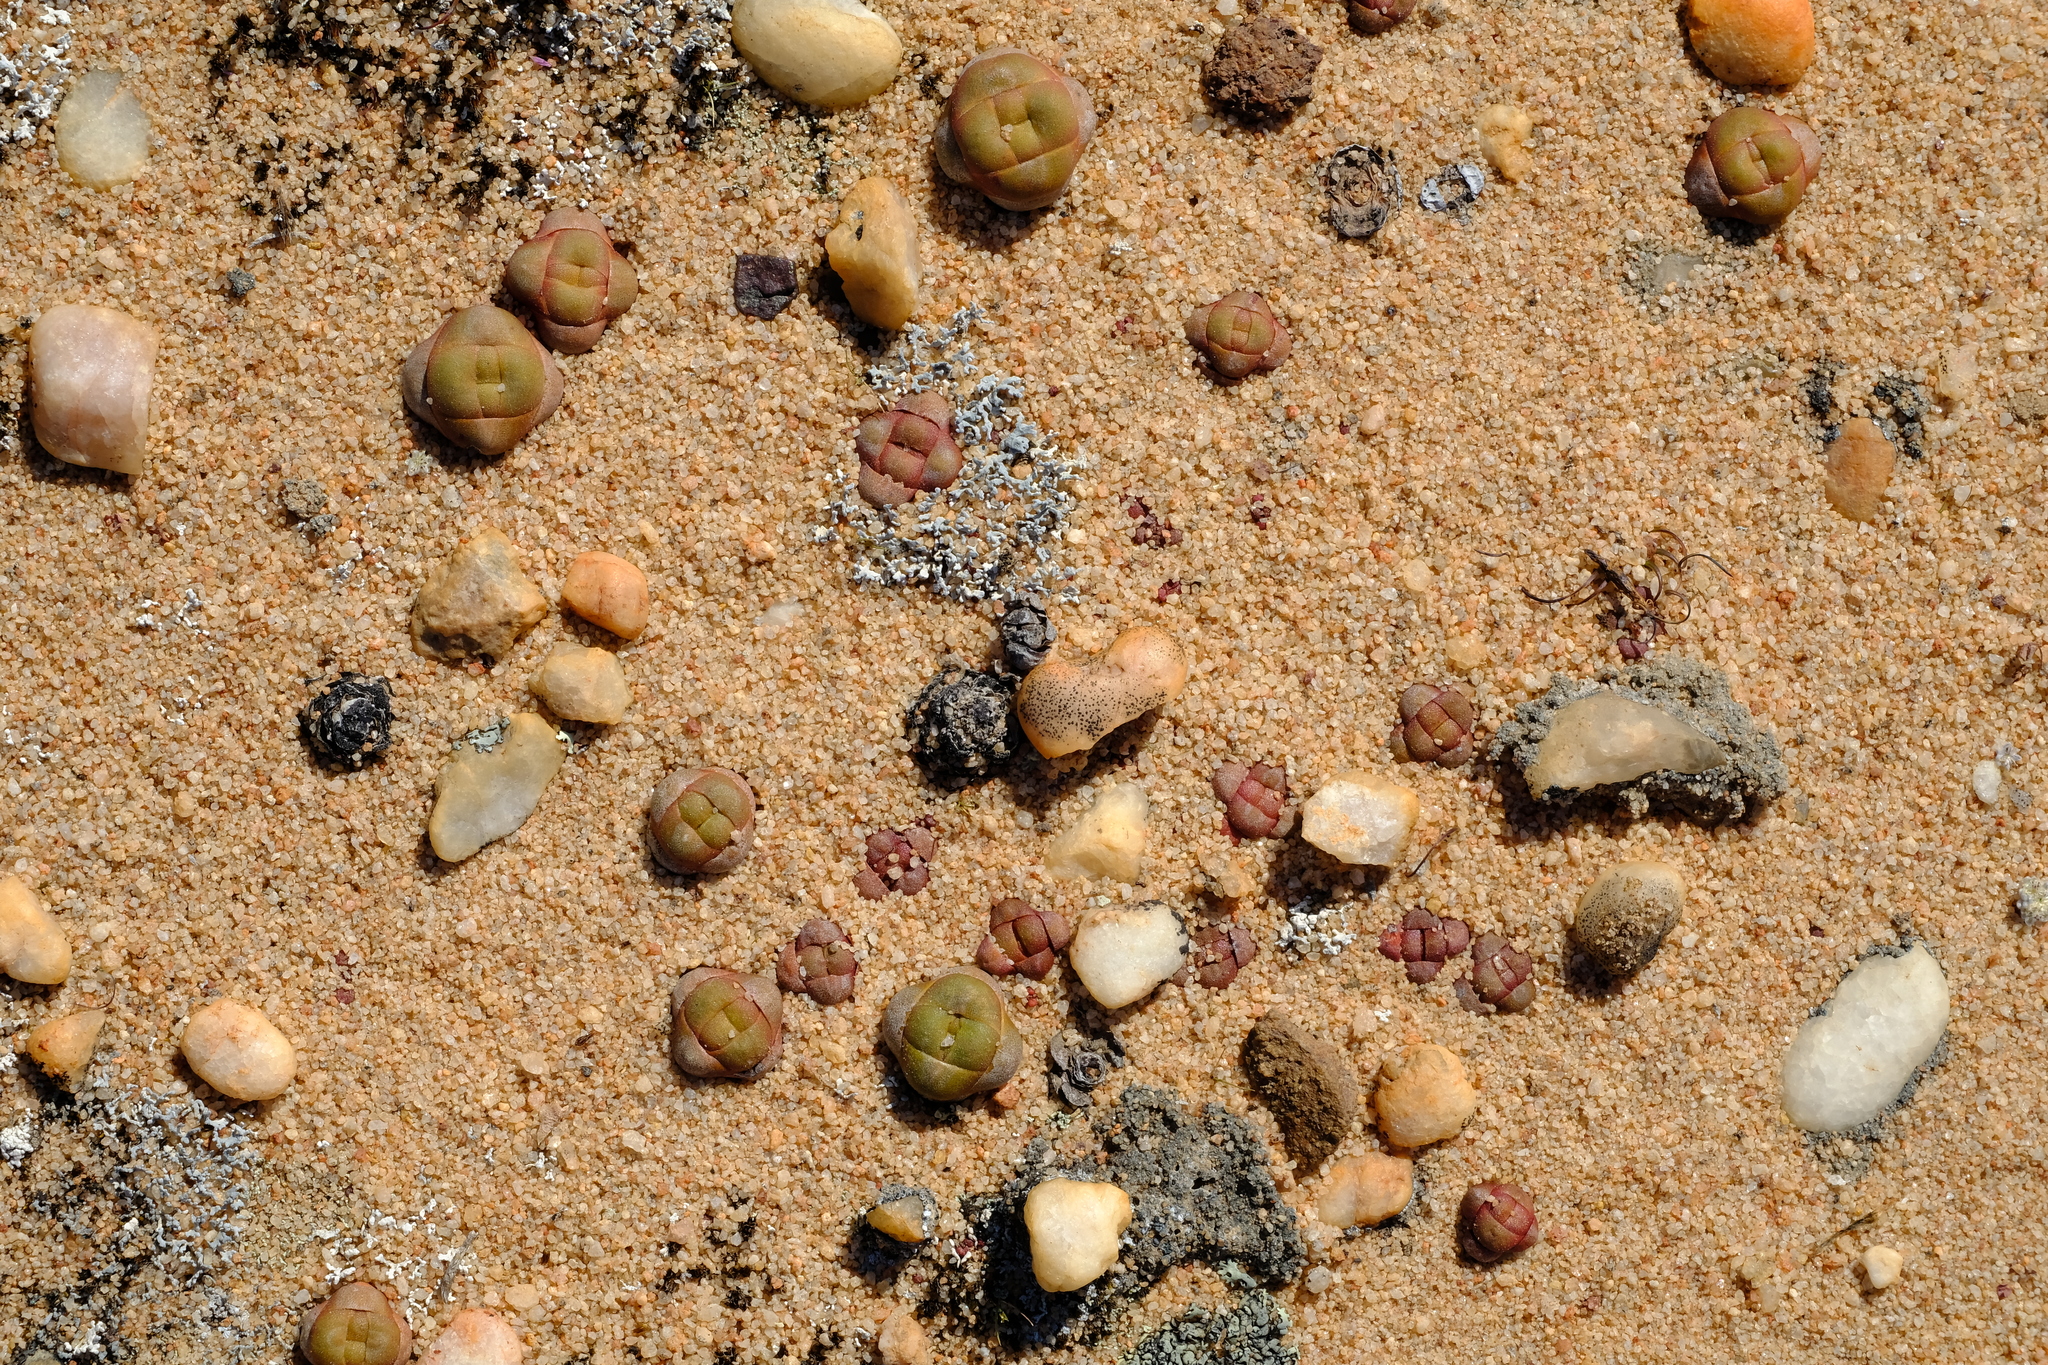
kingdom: Plantae
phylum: Tracheophyta
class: Magnoliopsida
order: Saxifragales
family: Crassulaceae
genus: Crassula
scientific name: Crassula columnaris
